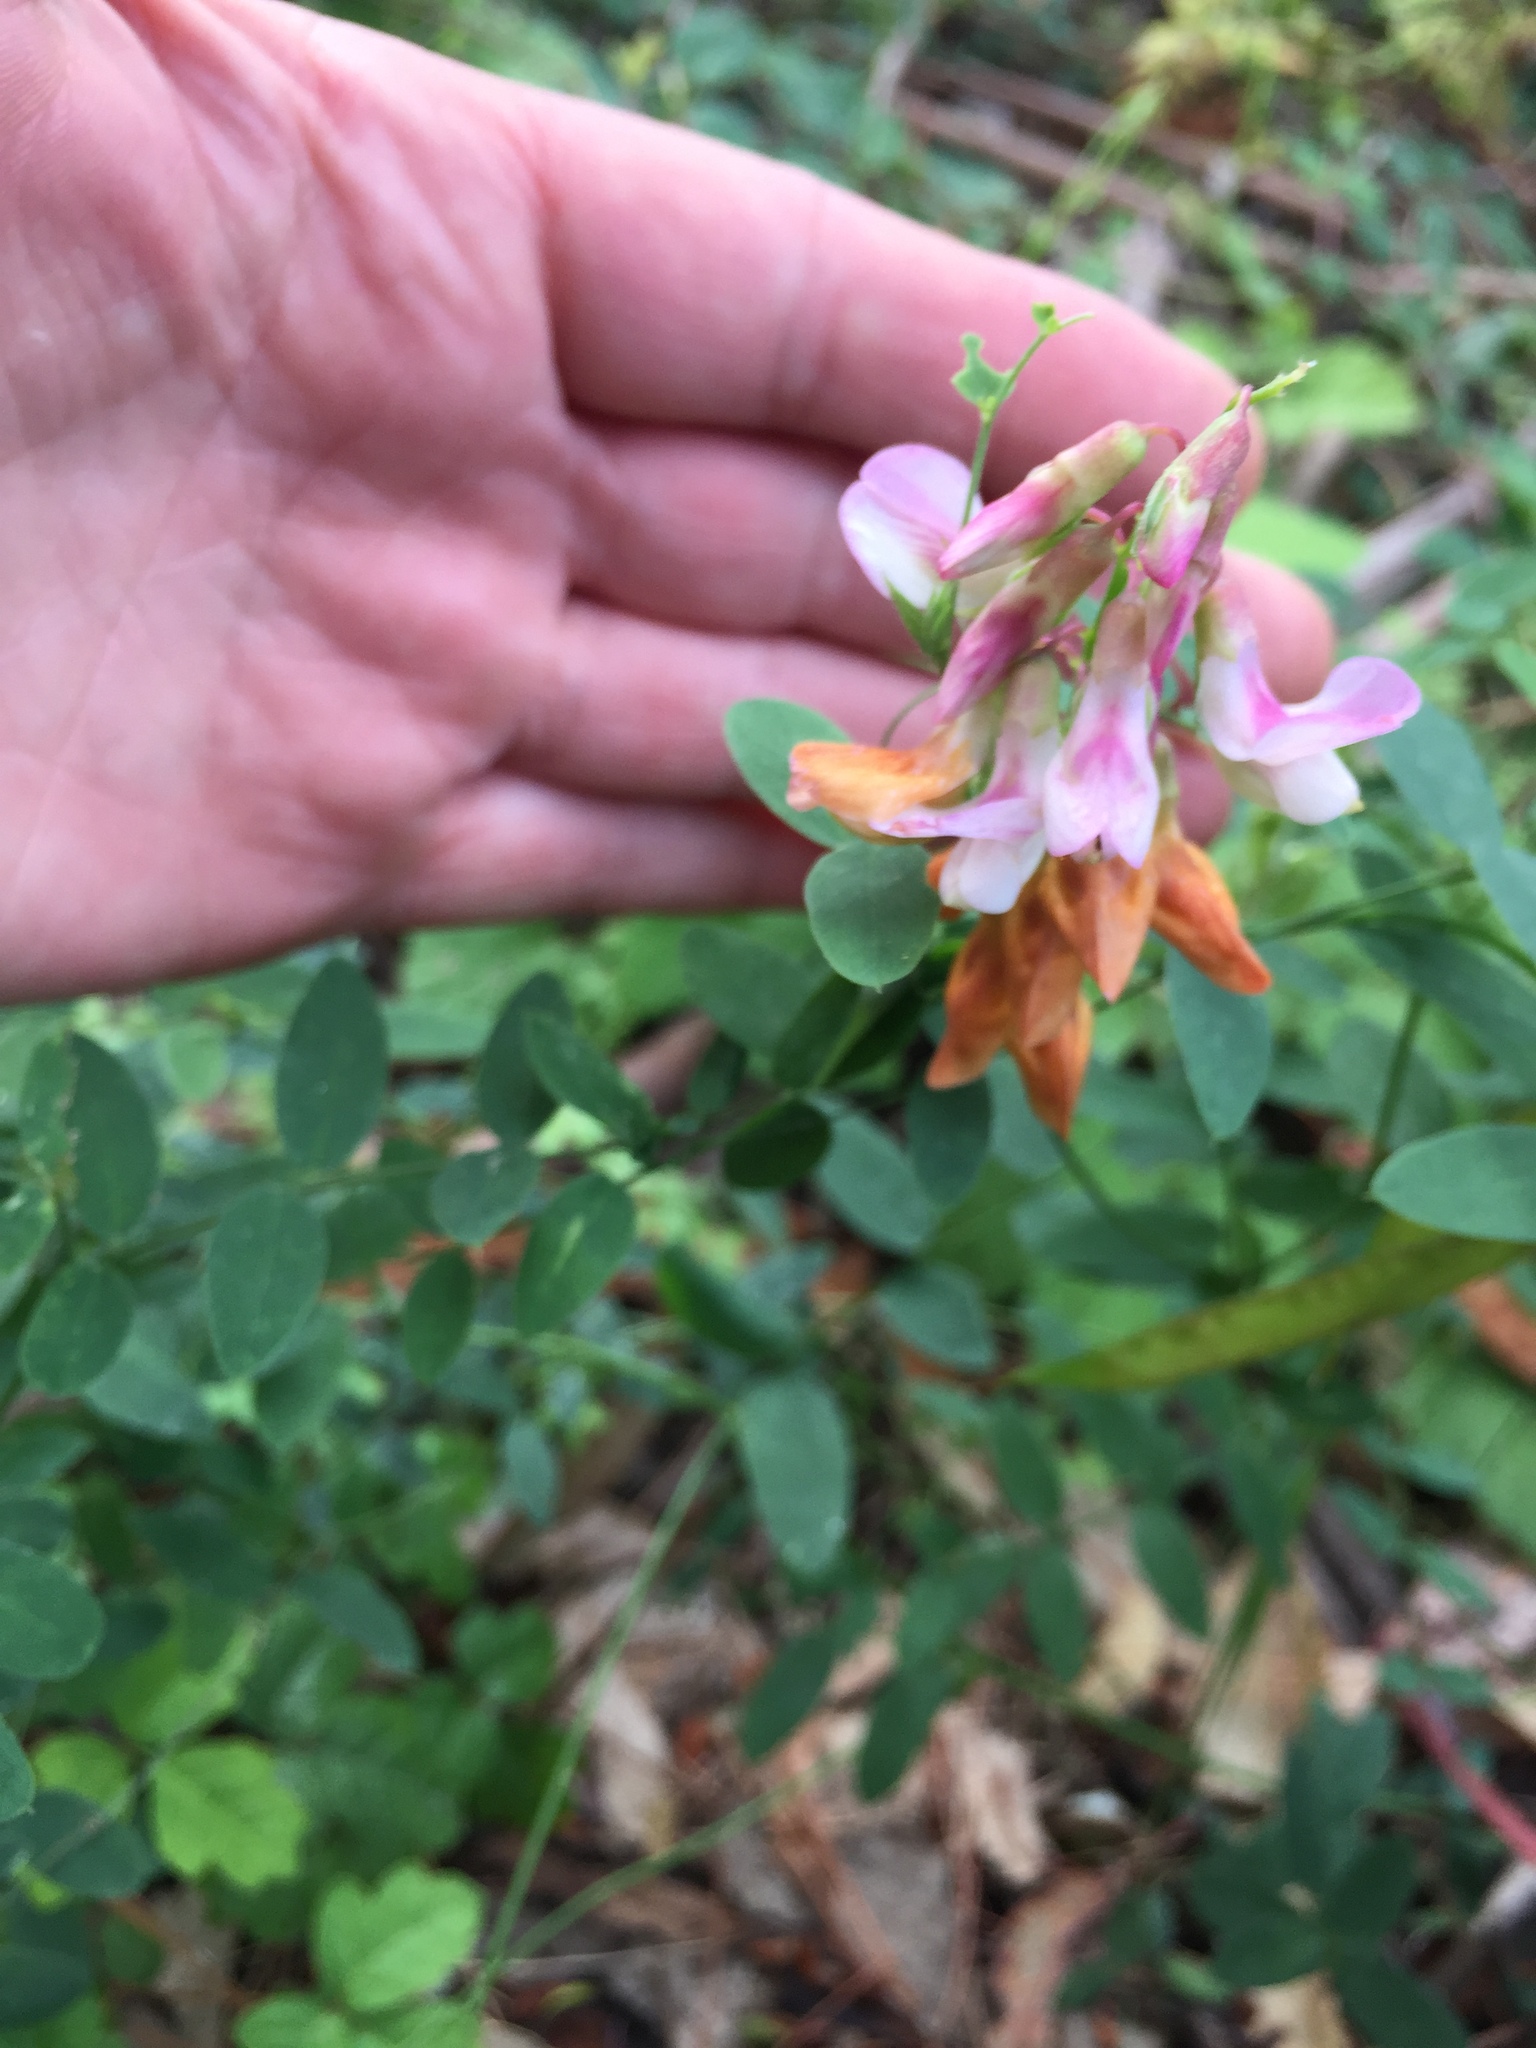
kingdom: Plantae
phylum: Tracheophyta
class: Magnoliopsida
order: Fabales
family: Fabaceae
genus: Lathyrus
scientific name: Lathyrus vestitus
